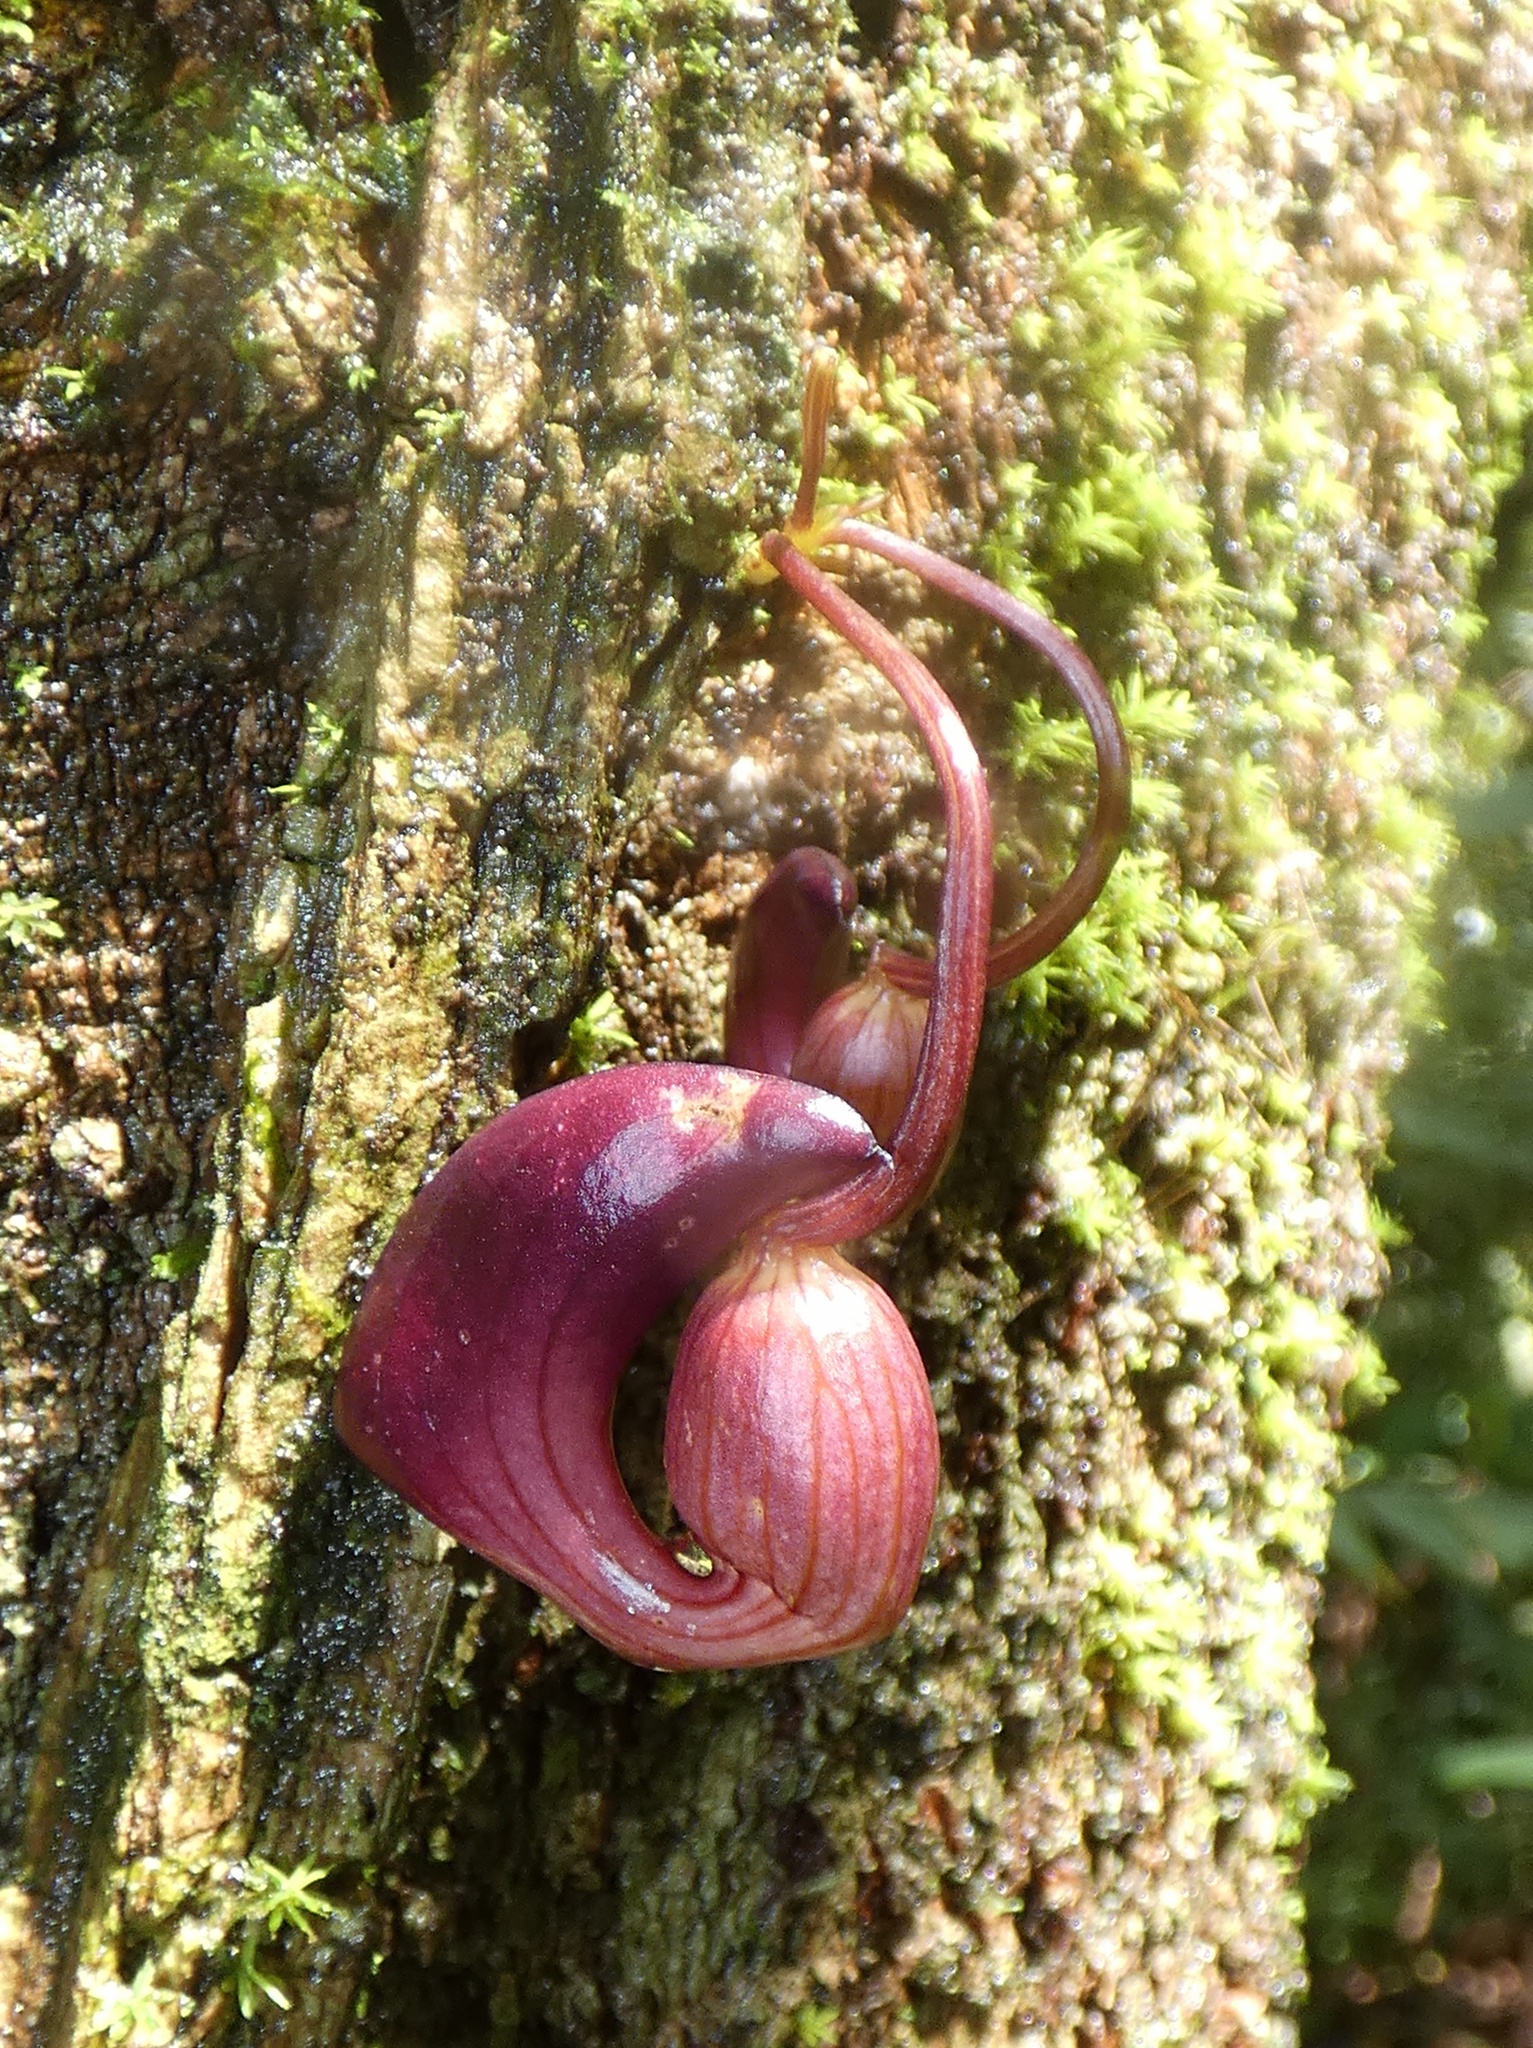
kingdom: Plantae
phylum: Tracheophyta
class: Magnoliopsida
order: Piperales
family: Aristolochiaceae
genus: Aristolochia
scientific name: Aristolochia leuconeura
